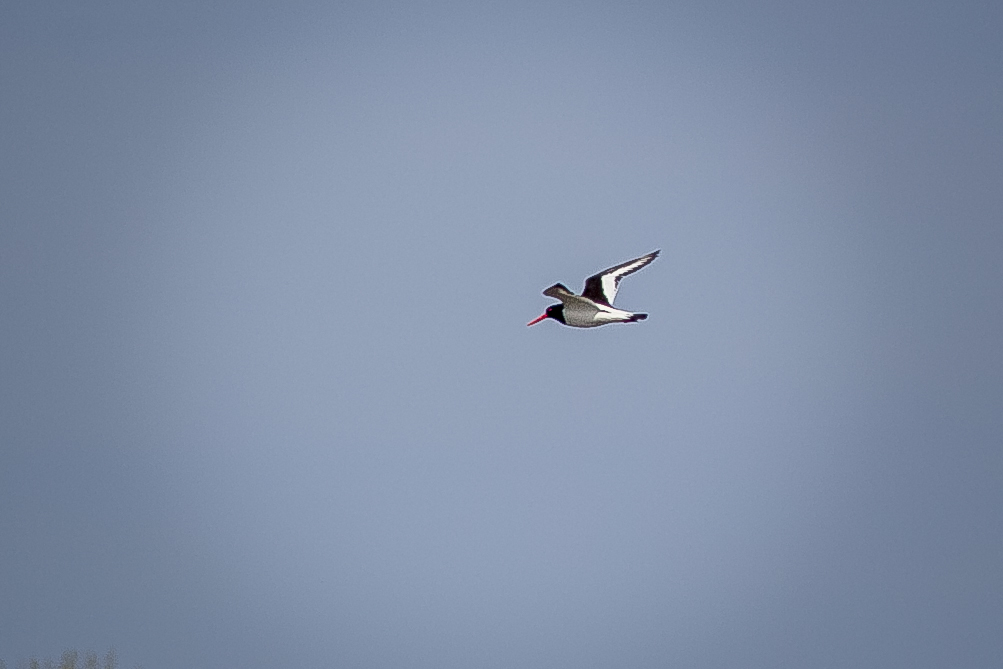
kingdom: Animalia
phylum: Chordata
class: Aves
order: Charadriiformes
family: Haematopodidae
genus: Haematopus
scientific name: Haematopus ostralegus
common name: Eurasian oystercatcher
